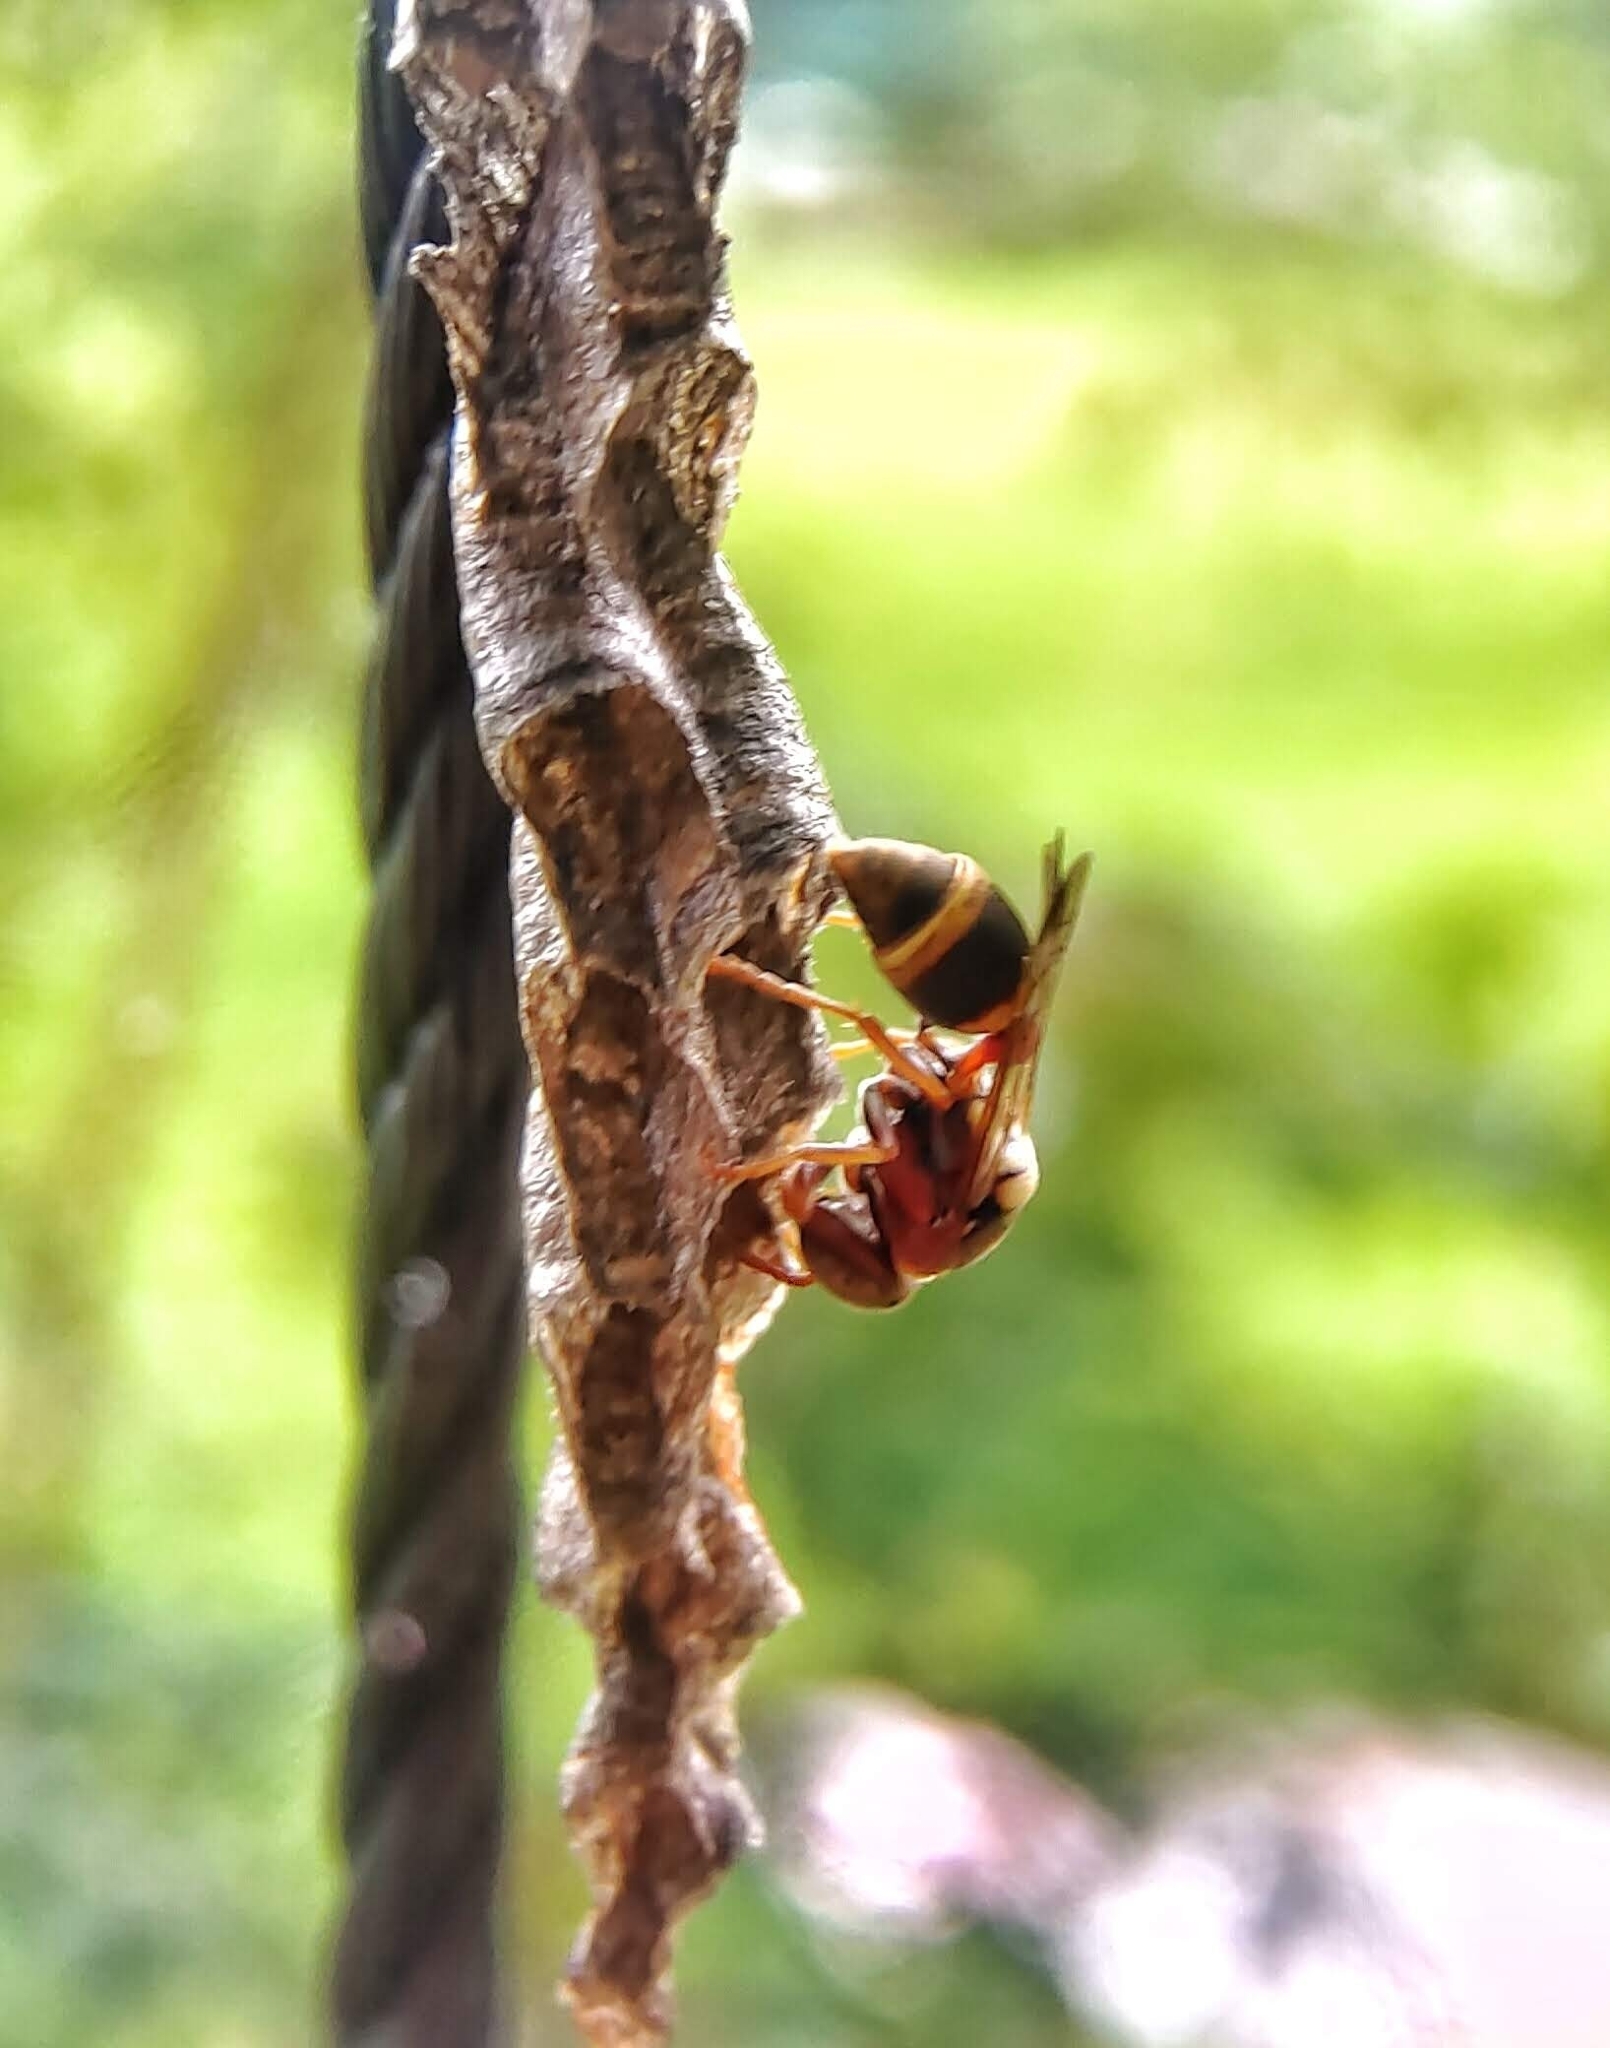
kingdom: Animalia
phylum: Arthropoda
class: Insecta
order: Hymenoptera
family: Vespidae
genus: Ropalidia
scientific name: Ropalidia jacobsoni
